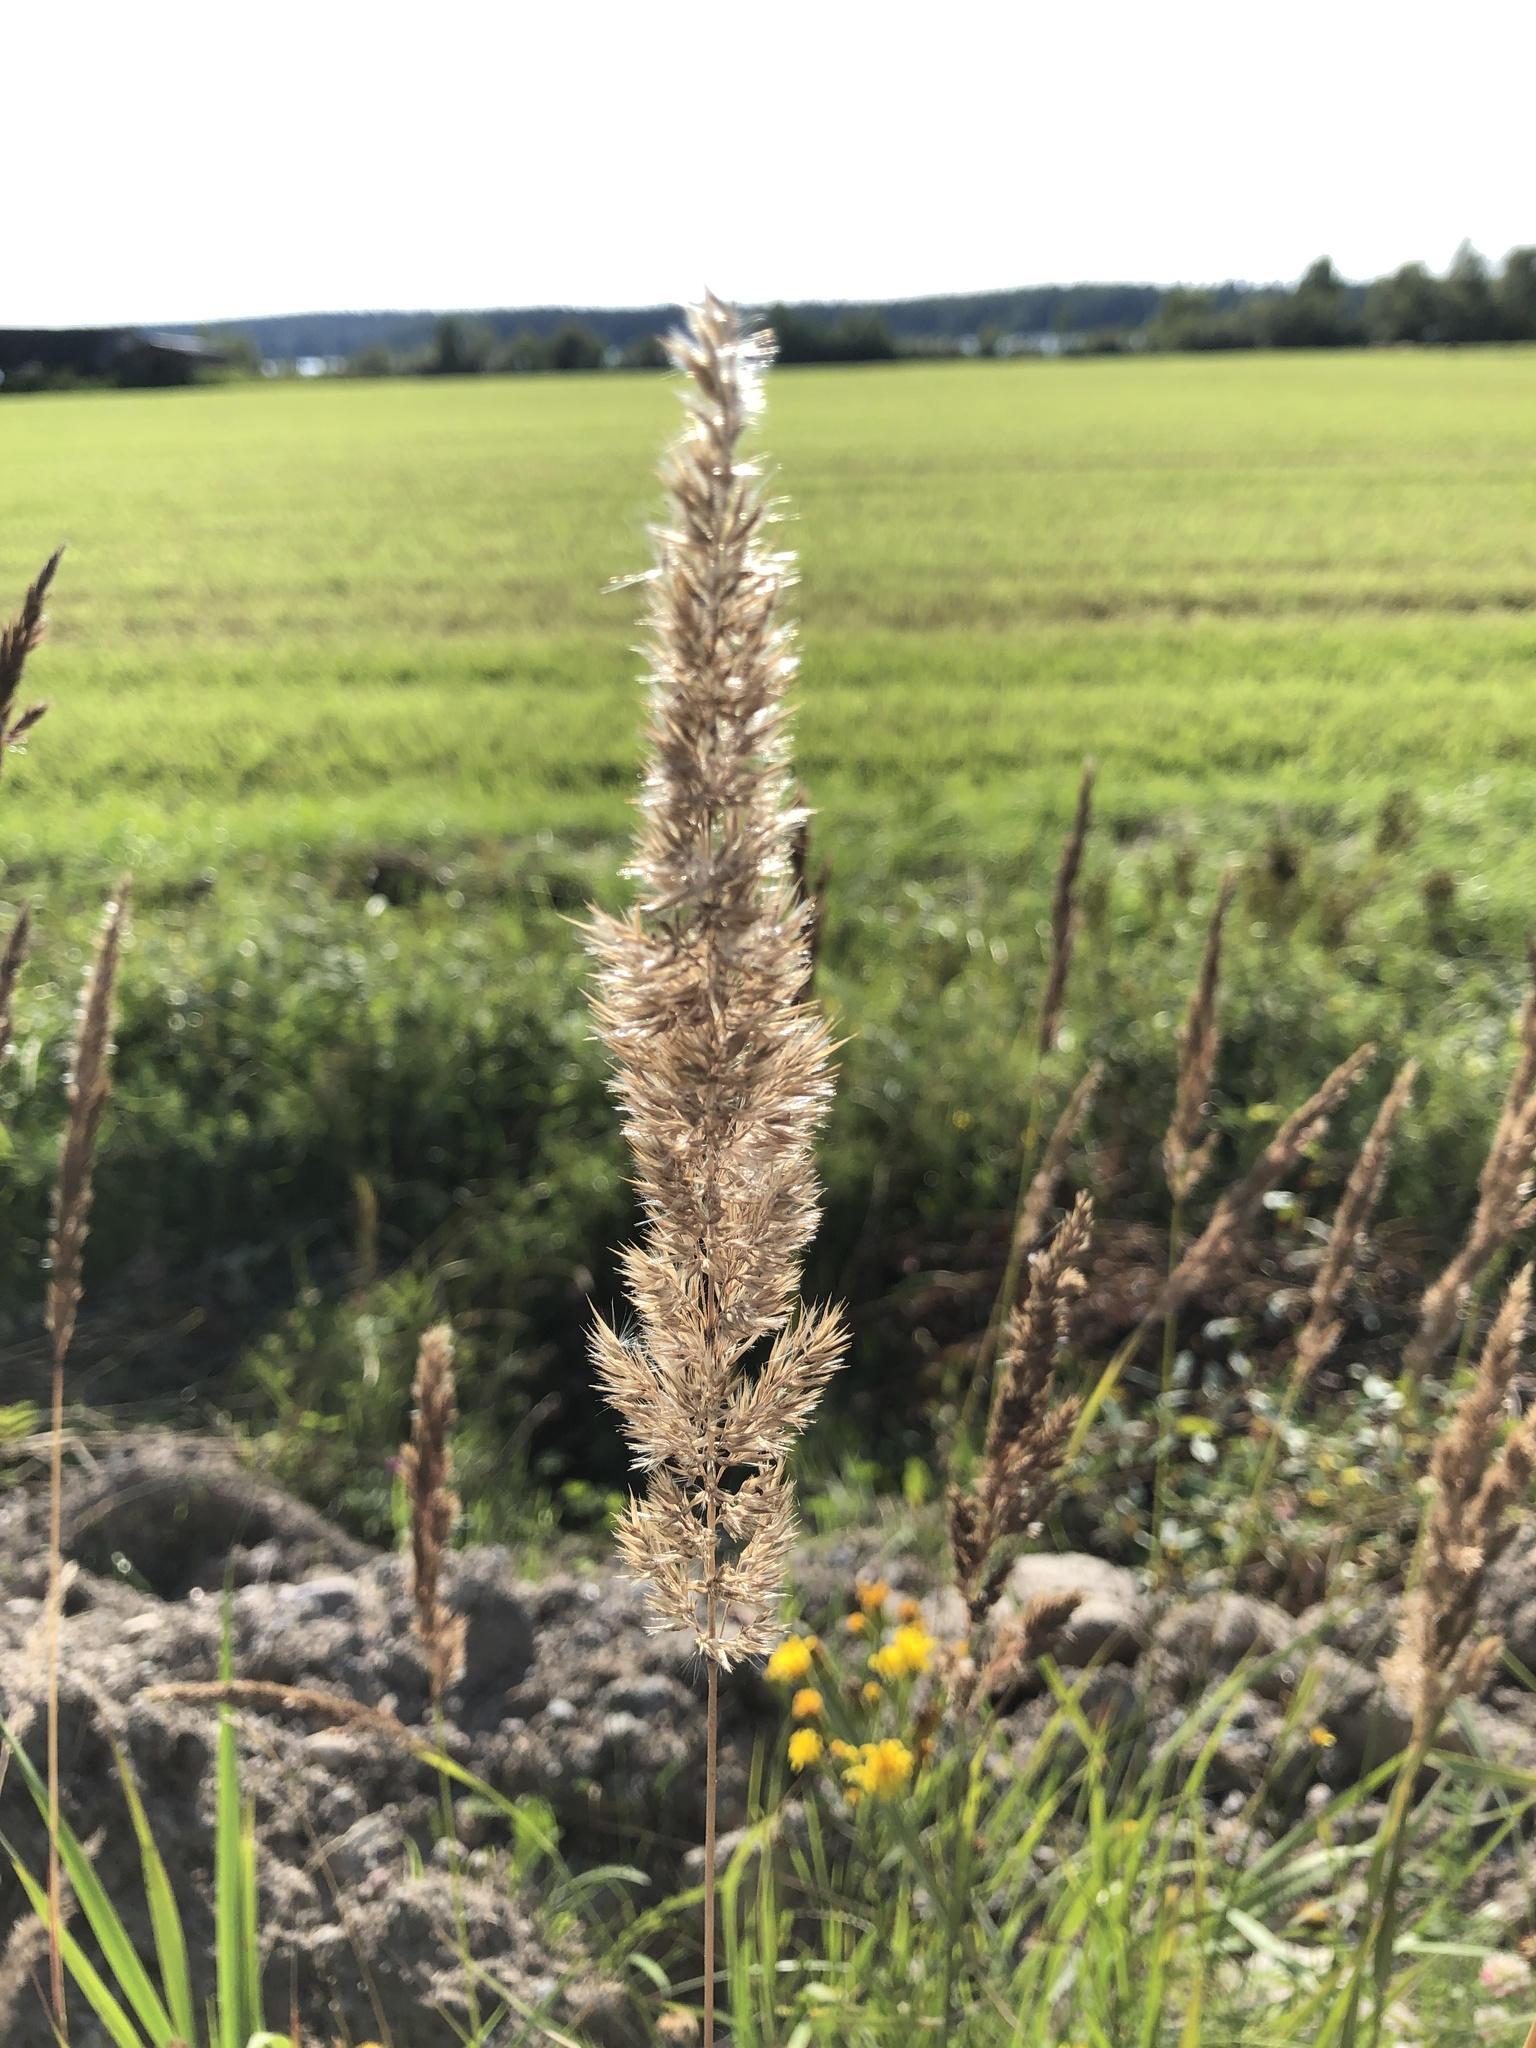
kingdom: Plantae
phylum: Tracheophyta
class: Liliopsida
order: Poales
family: Poaceae
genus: Calamagrostis
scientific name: Calamagrostis epigejos
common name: Wood small-reed
